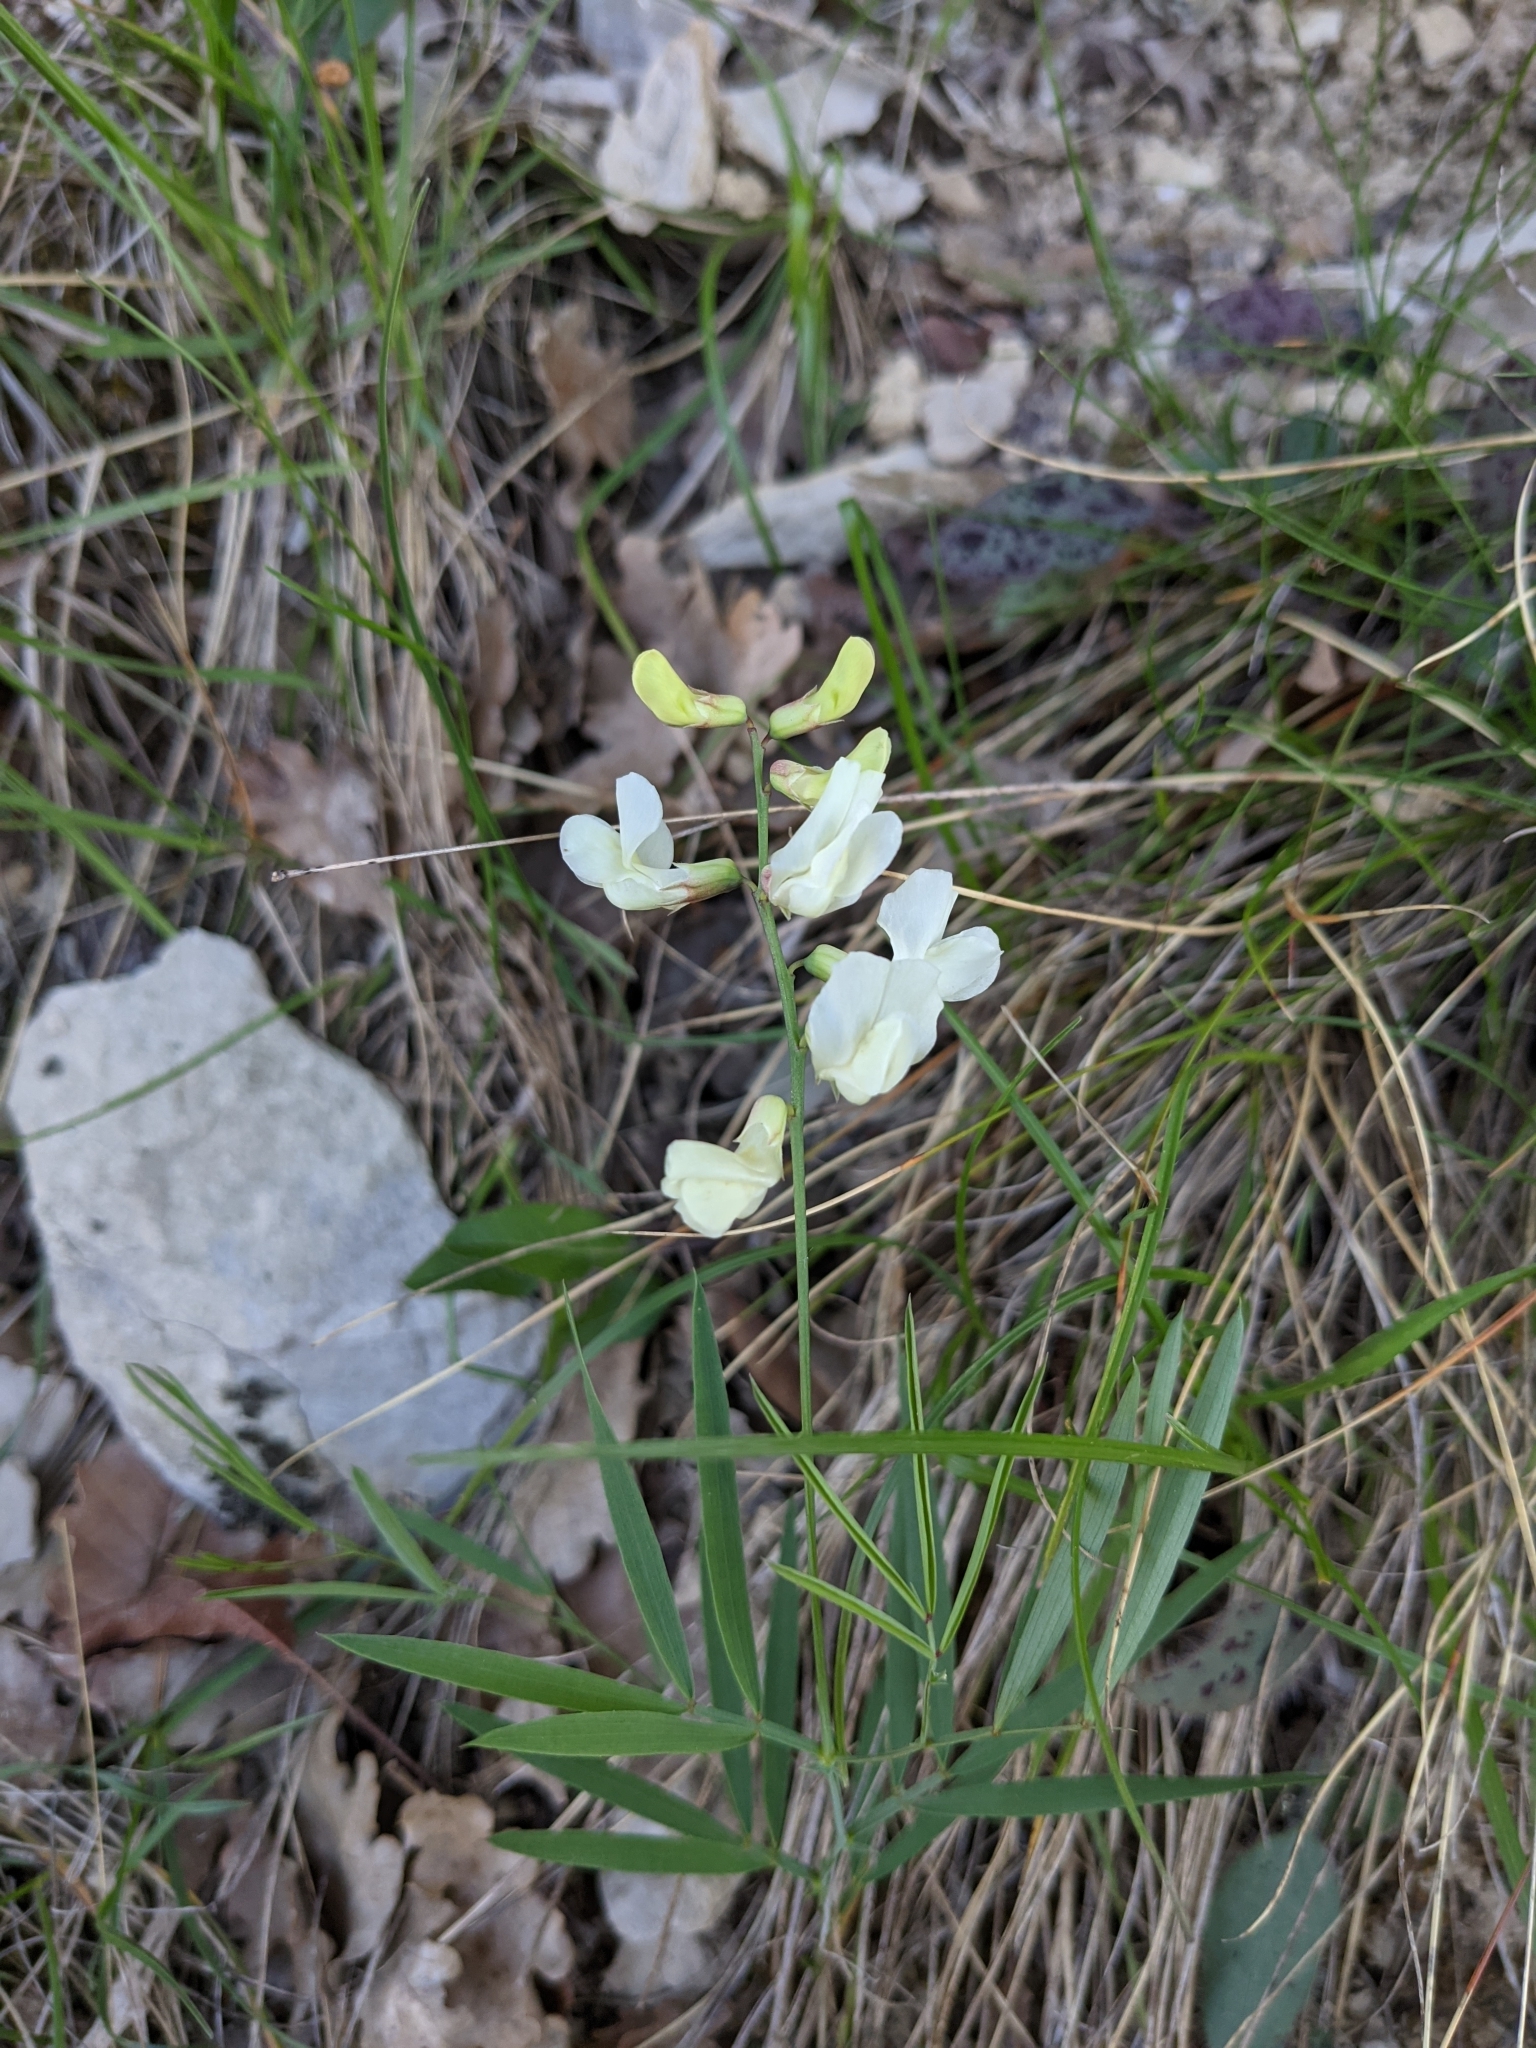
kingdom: Plantae
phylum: Tracheophyta
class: Magnoliopsida
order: Fabales
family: Fabaceae
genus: Lathyrus
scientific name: Lathyrus pannonicus
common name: Pea
